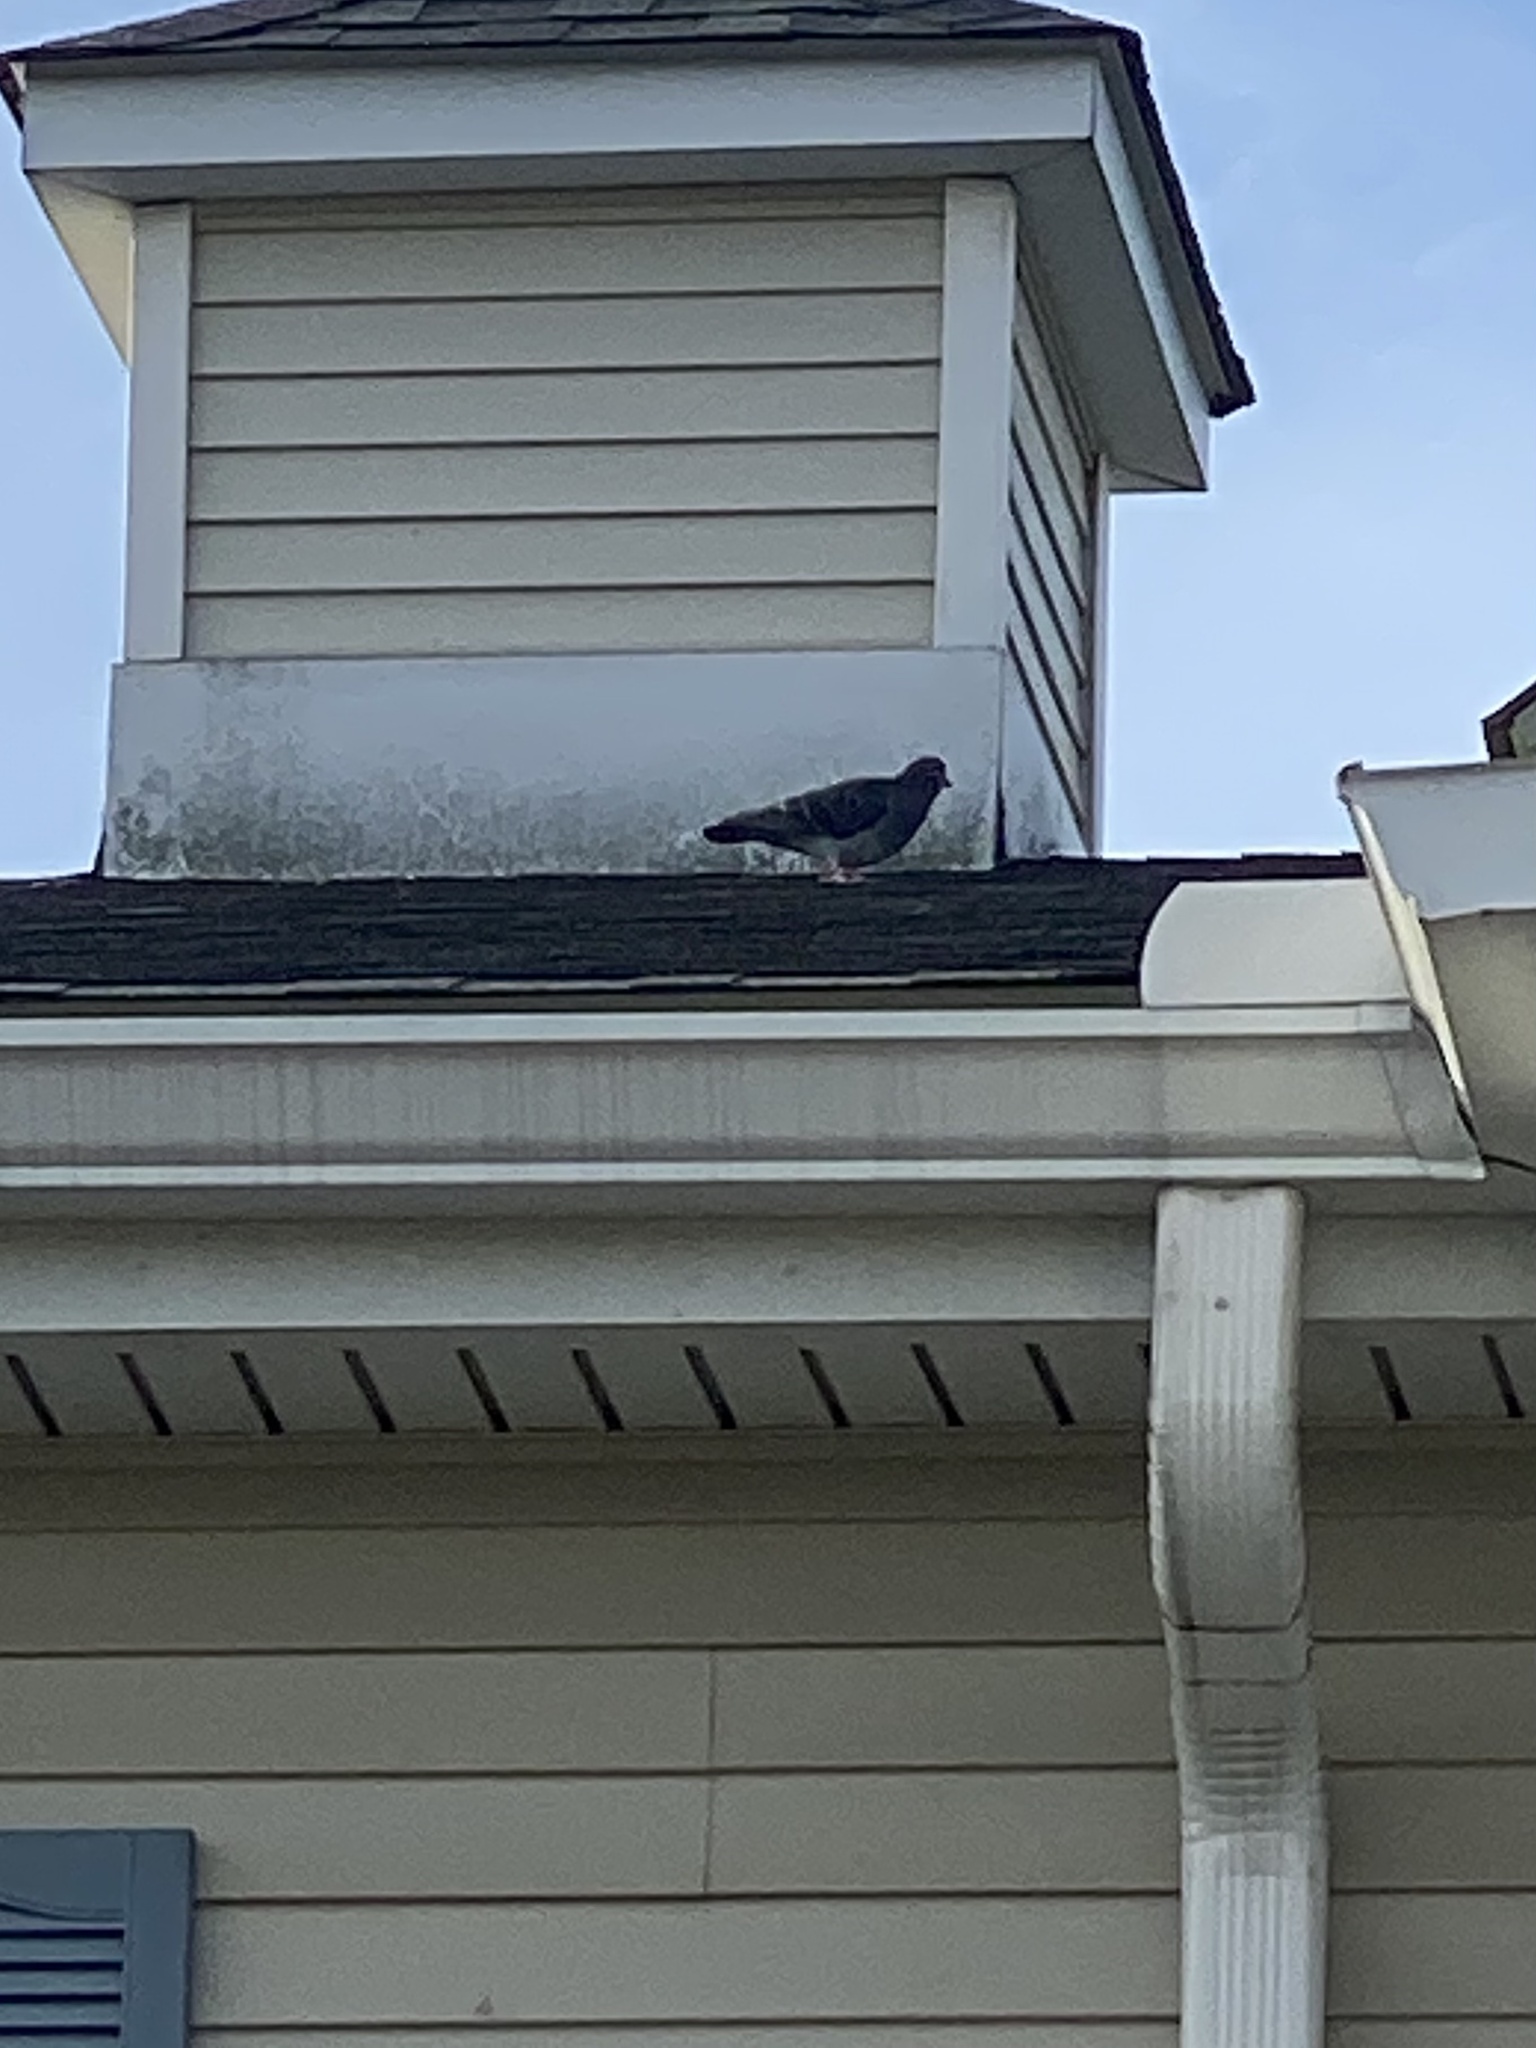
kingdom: Animalia
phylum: Chordata
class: Aves
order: Columbiformes
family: Columbidae
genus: Columba
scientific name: Columba livia
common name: Rock pigeon
